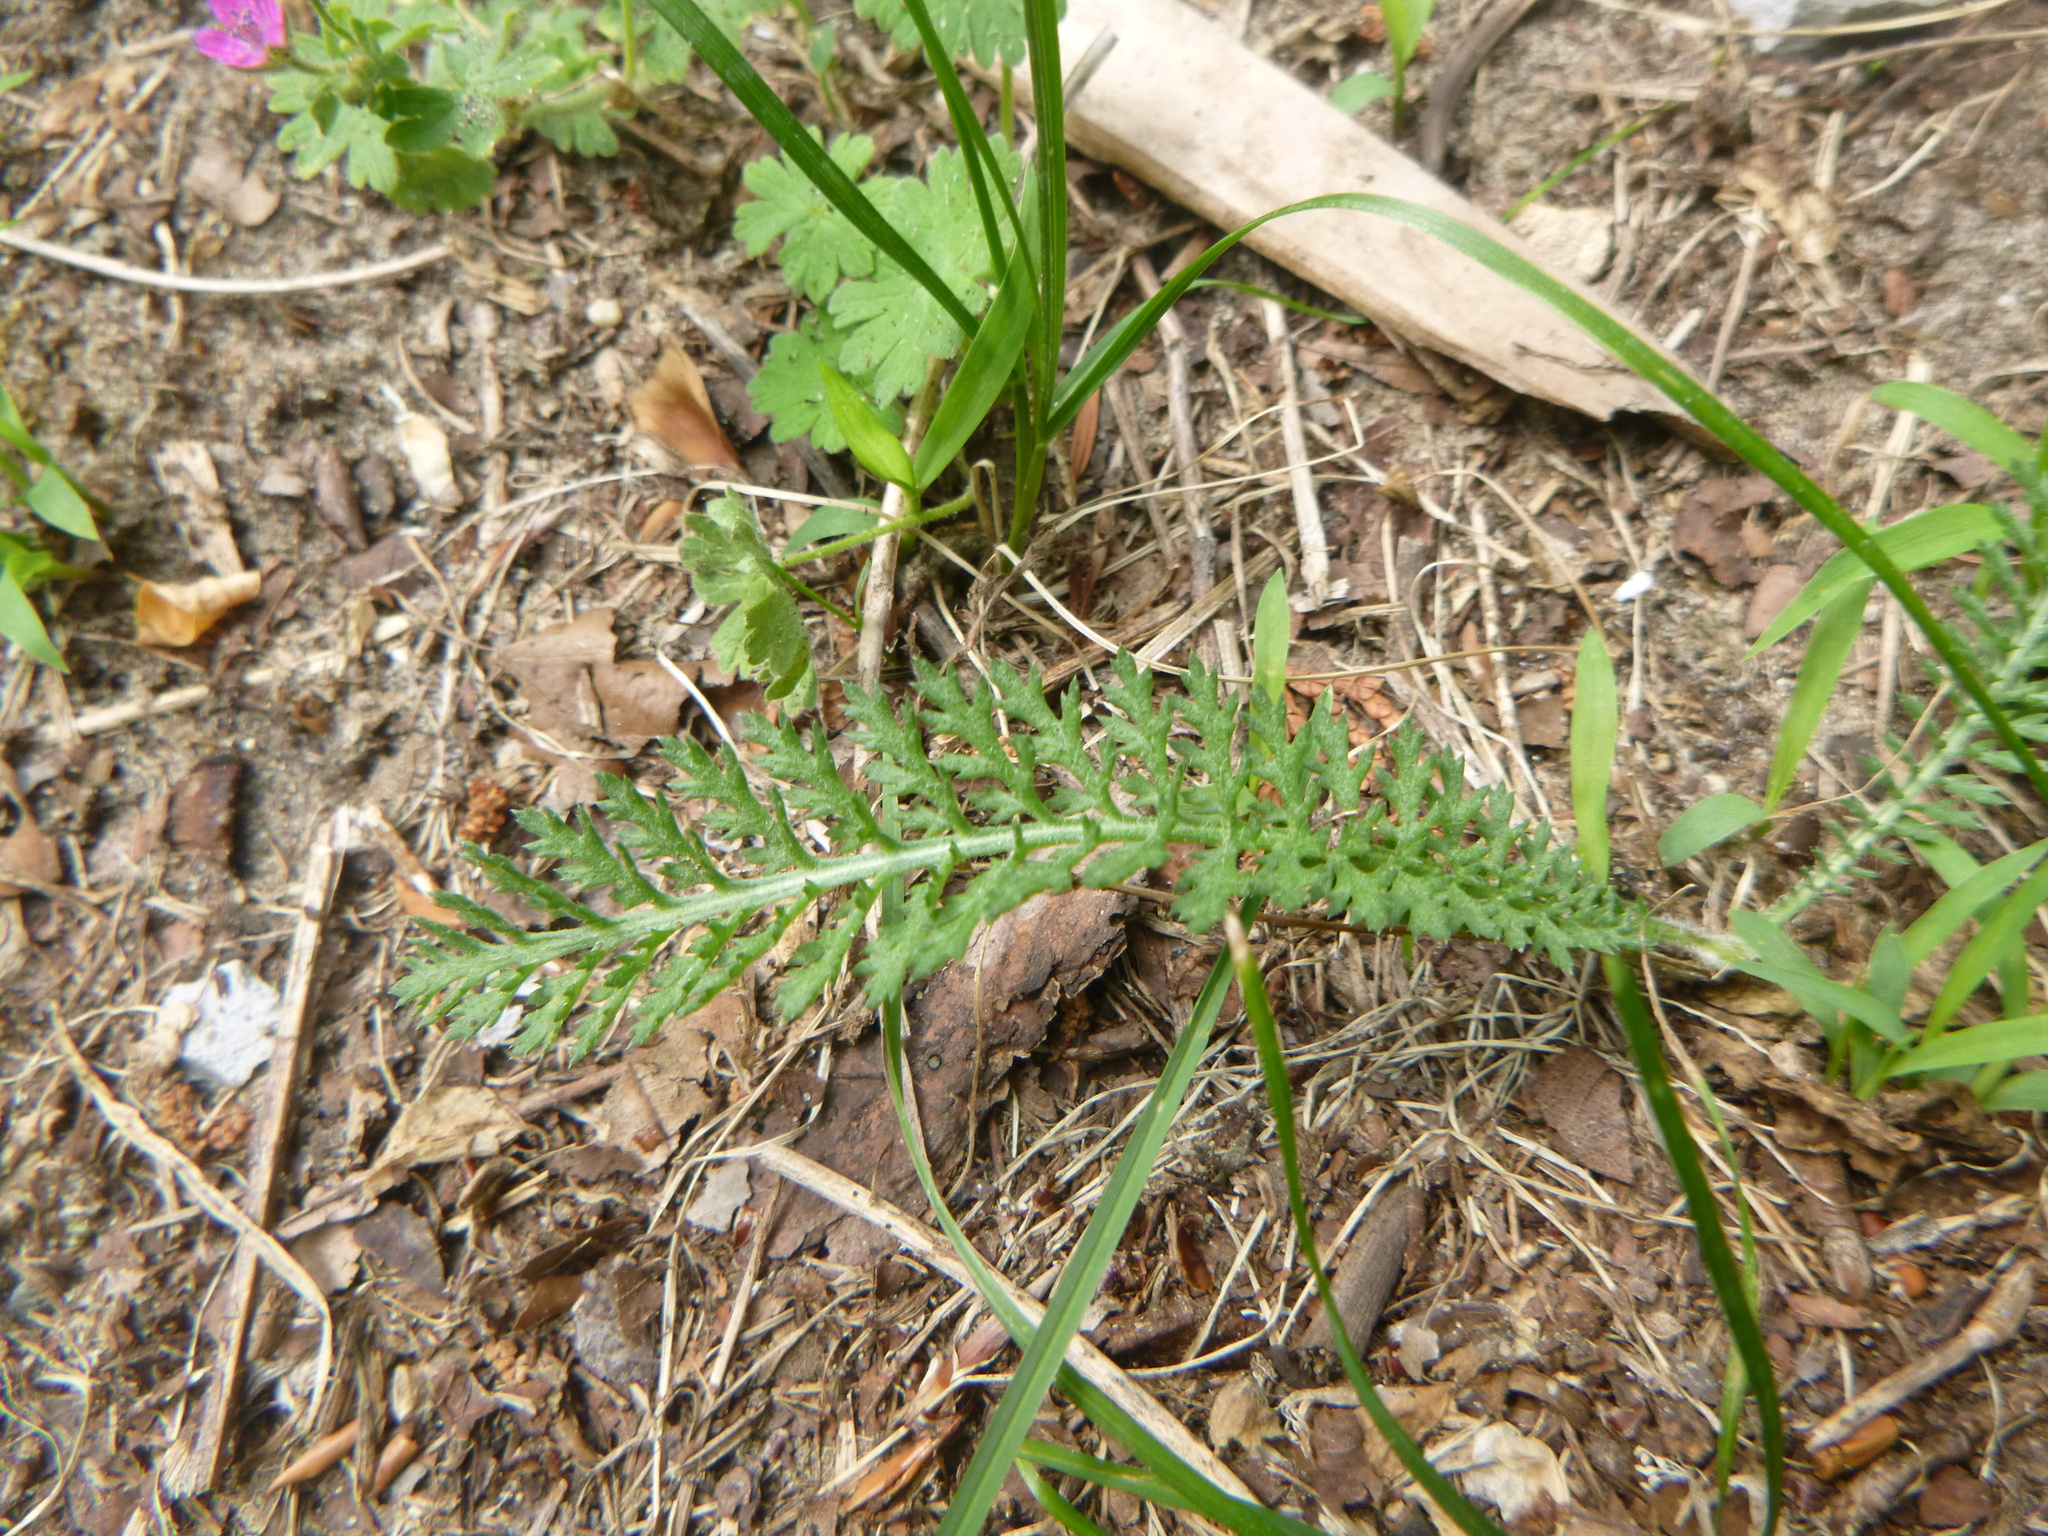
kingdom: Plantae
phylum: Tracheophyta
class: Magnoliopsida
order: Asterales
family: Asteraceae
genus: Achillea
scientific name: Achillea millefolium
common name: Yarrow
